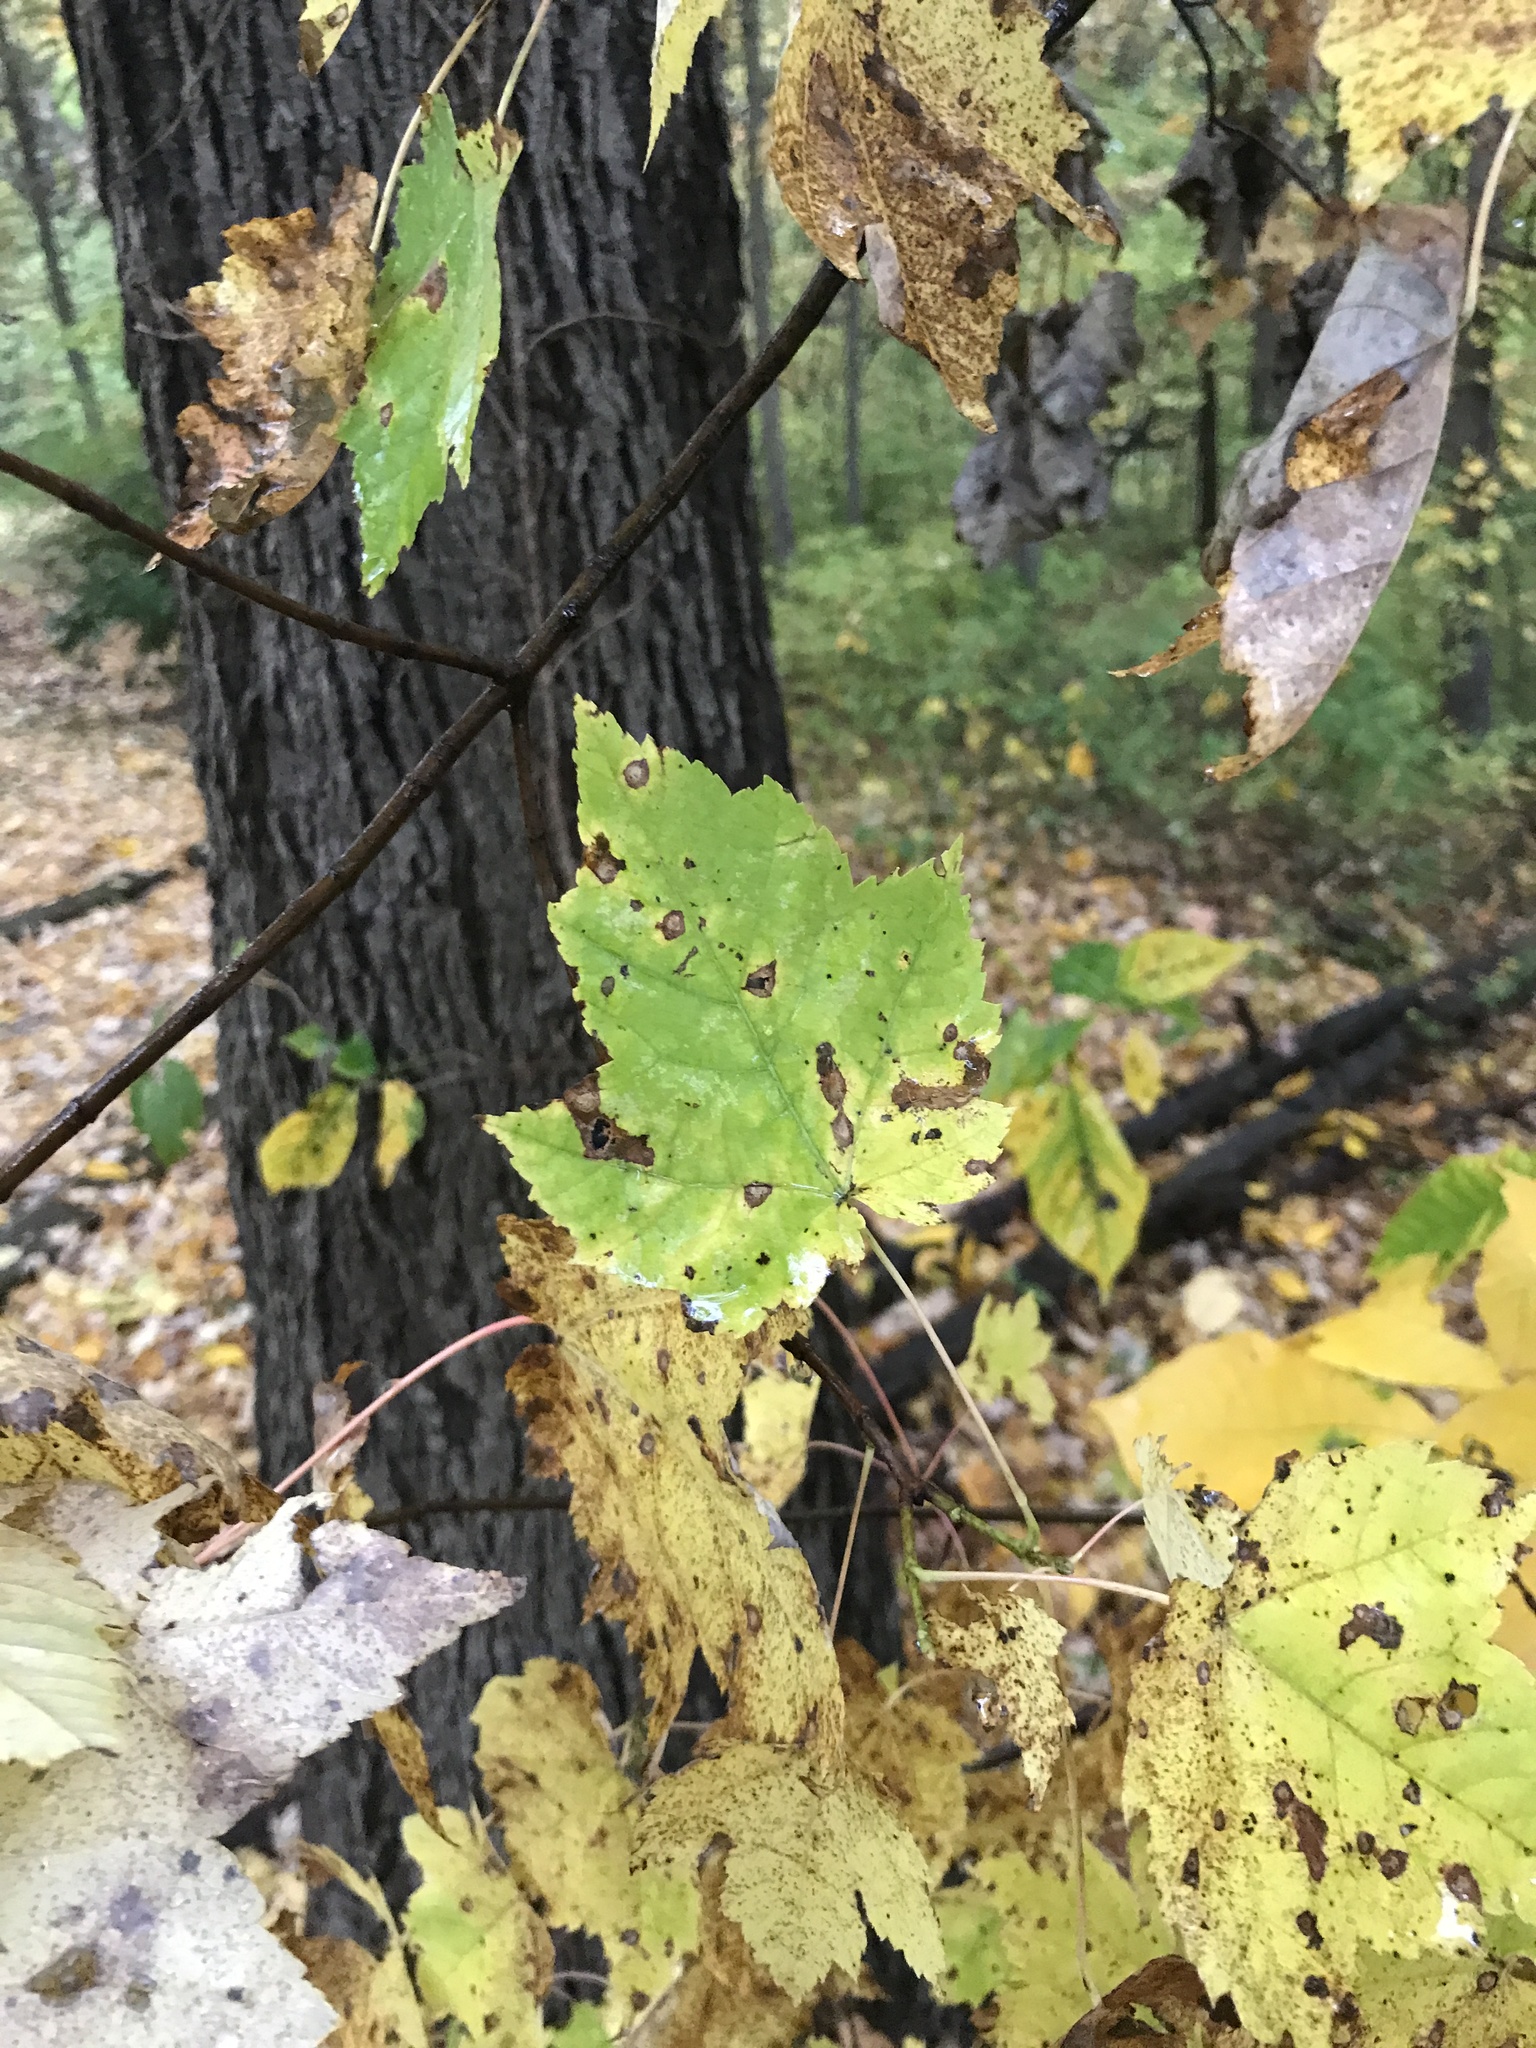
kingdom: Plantae
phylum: Tracheophyta
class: Magnoliopsida
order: Sapindales
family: Sapindaceae
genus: Acer
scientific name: Acer rubrum
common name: Red maple
